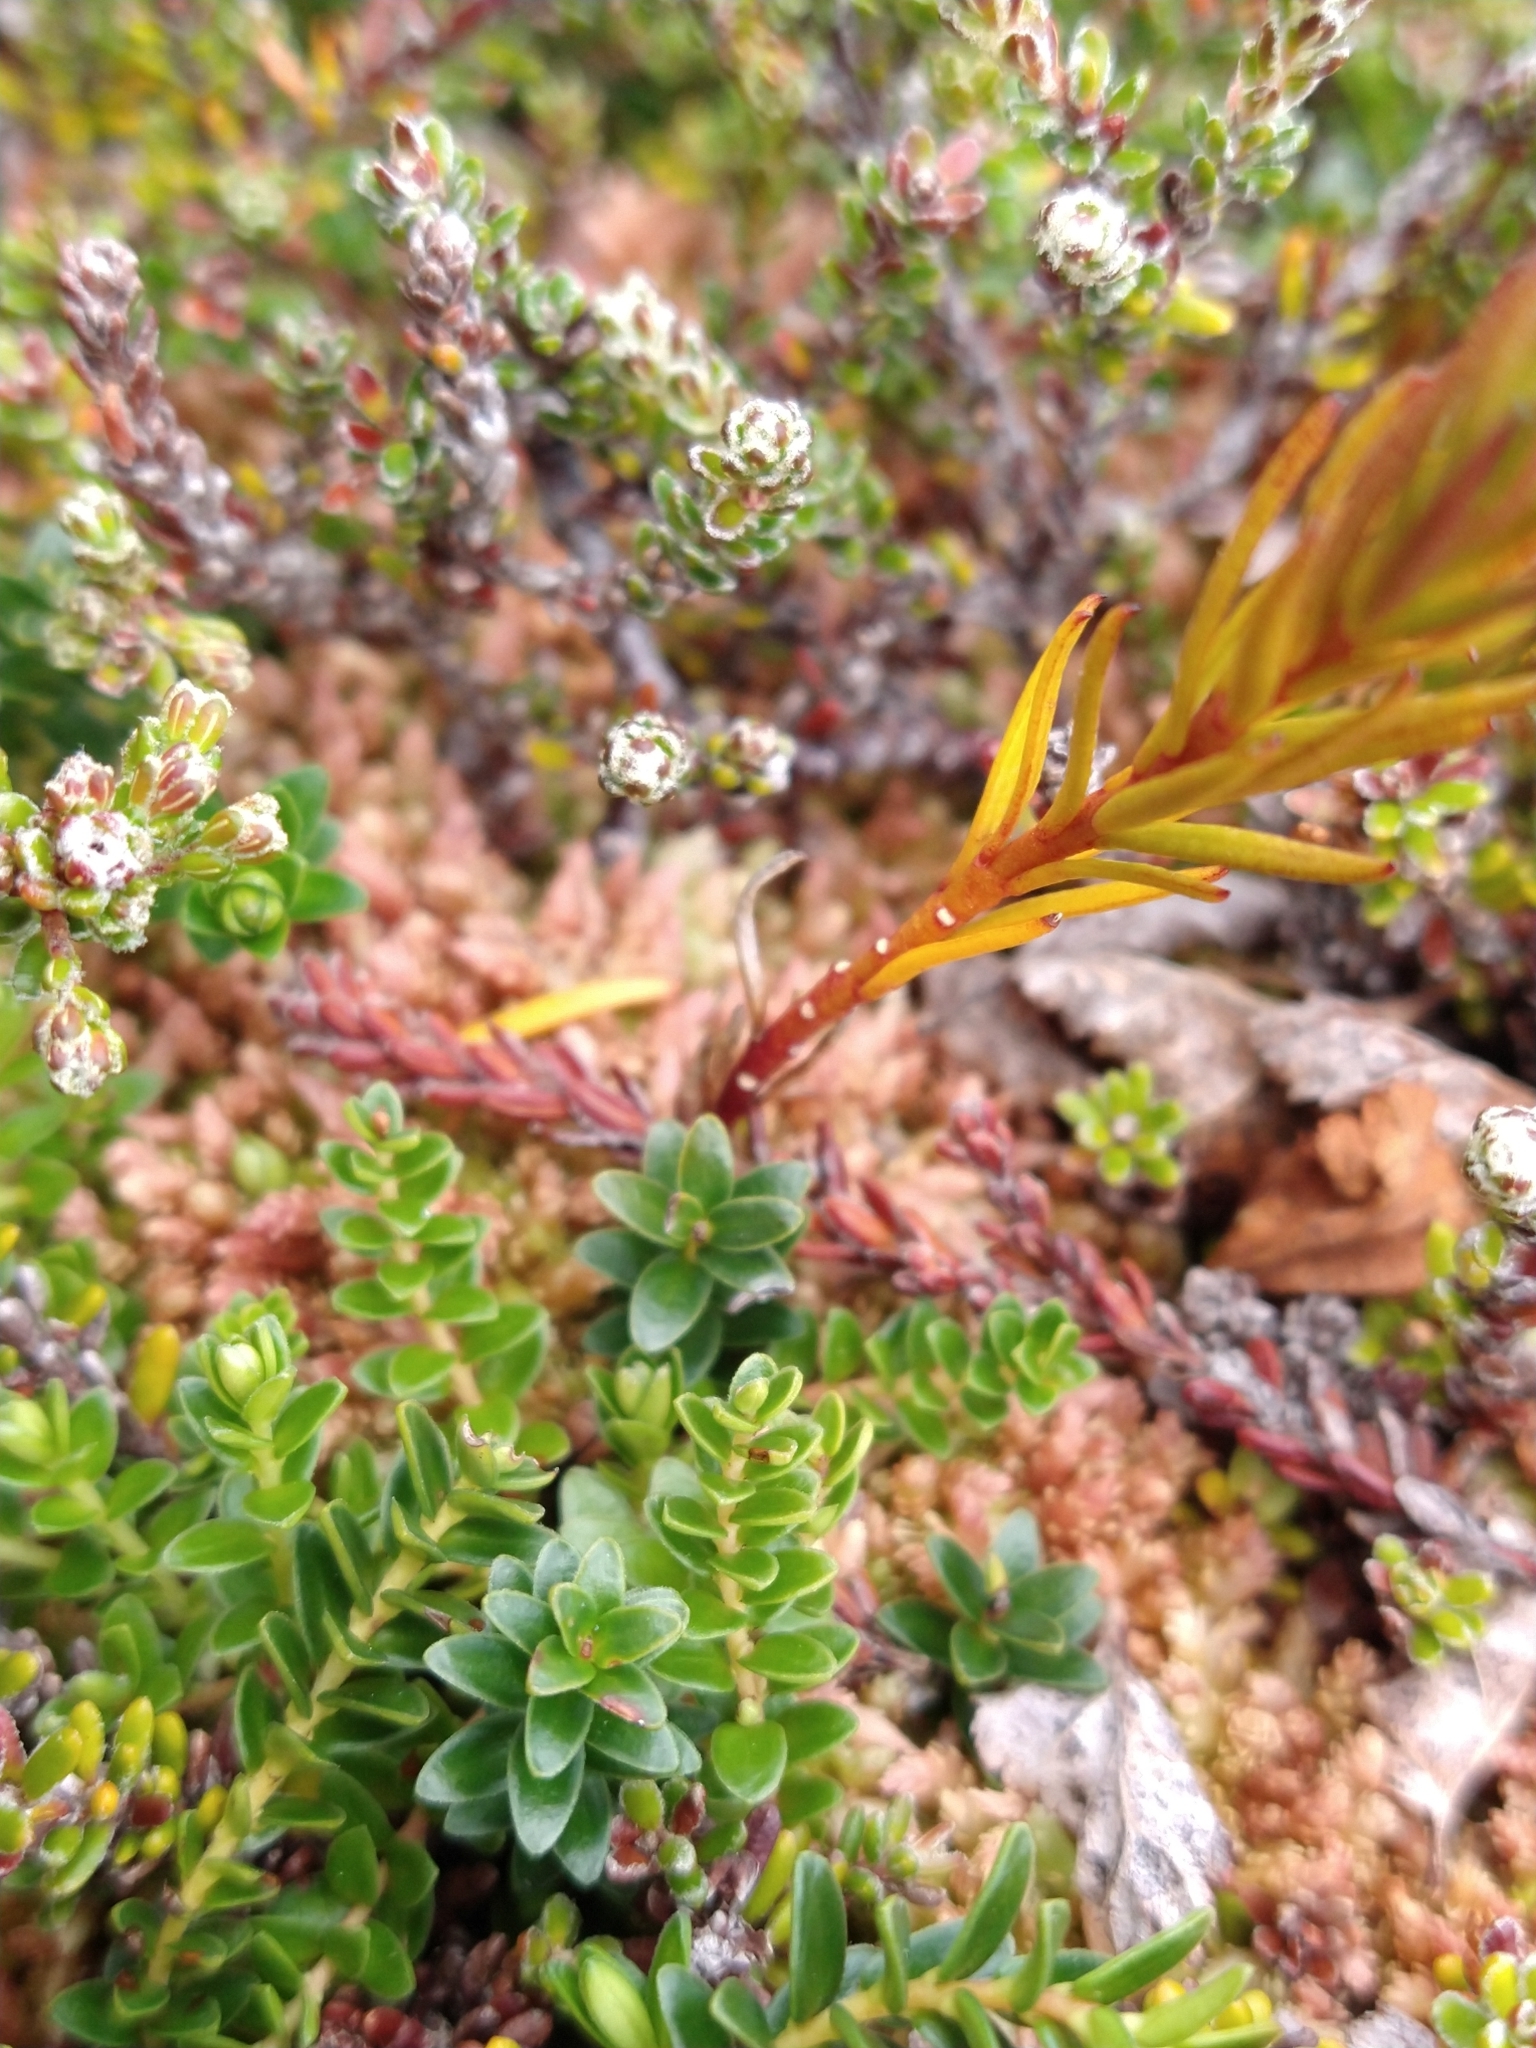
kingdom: Plantae
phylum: Tracheophyta
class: Magnoliopsida
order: Ericales
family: Ericaceae
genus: Gaultheria
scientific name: Gaultheria pumila
